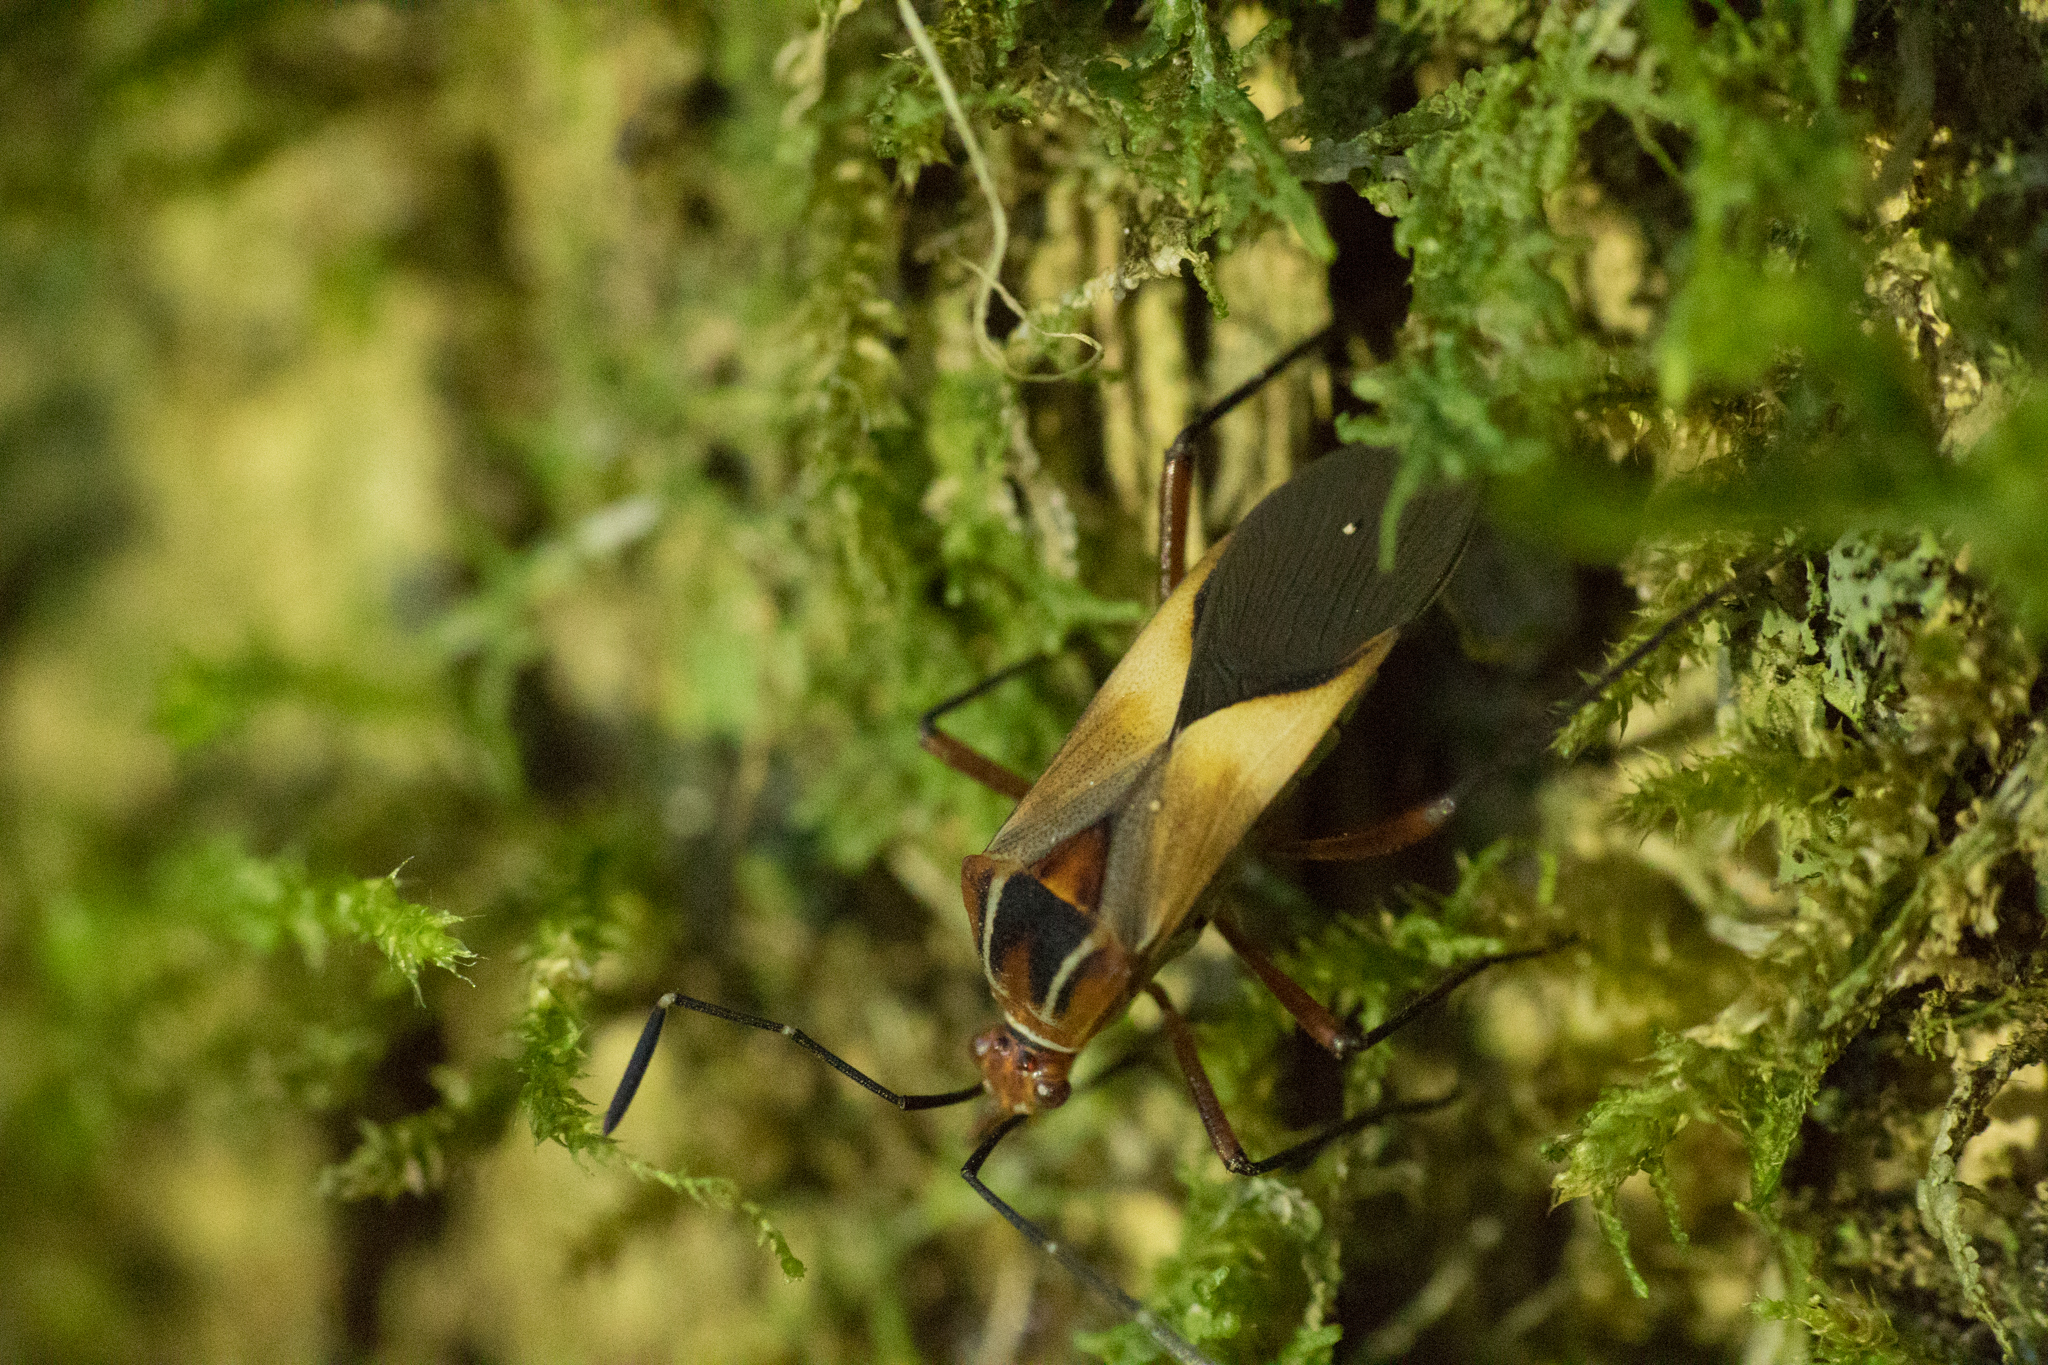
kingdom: Animalia
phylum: Arthropoda
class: Insecta
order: Hemiptera
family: Coreidae
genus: Hypselonotus
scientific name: Hypselonotus interruptus
